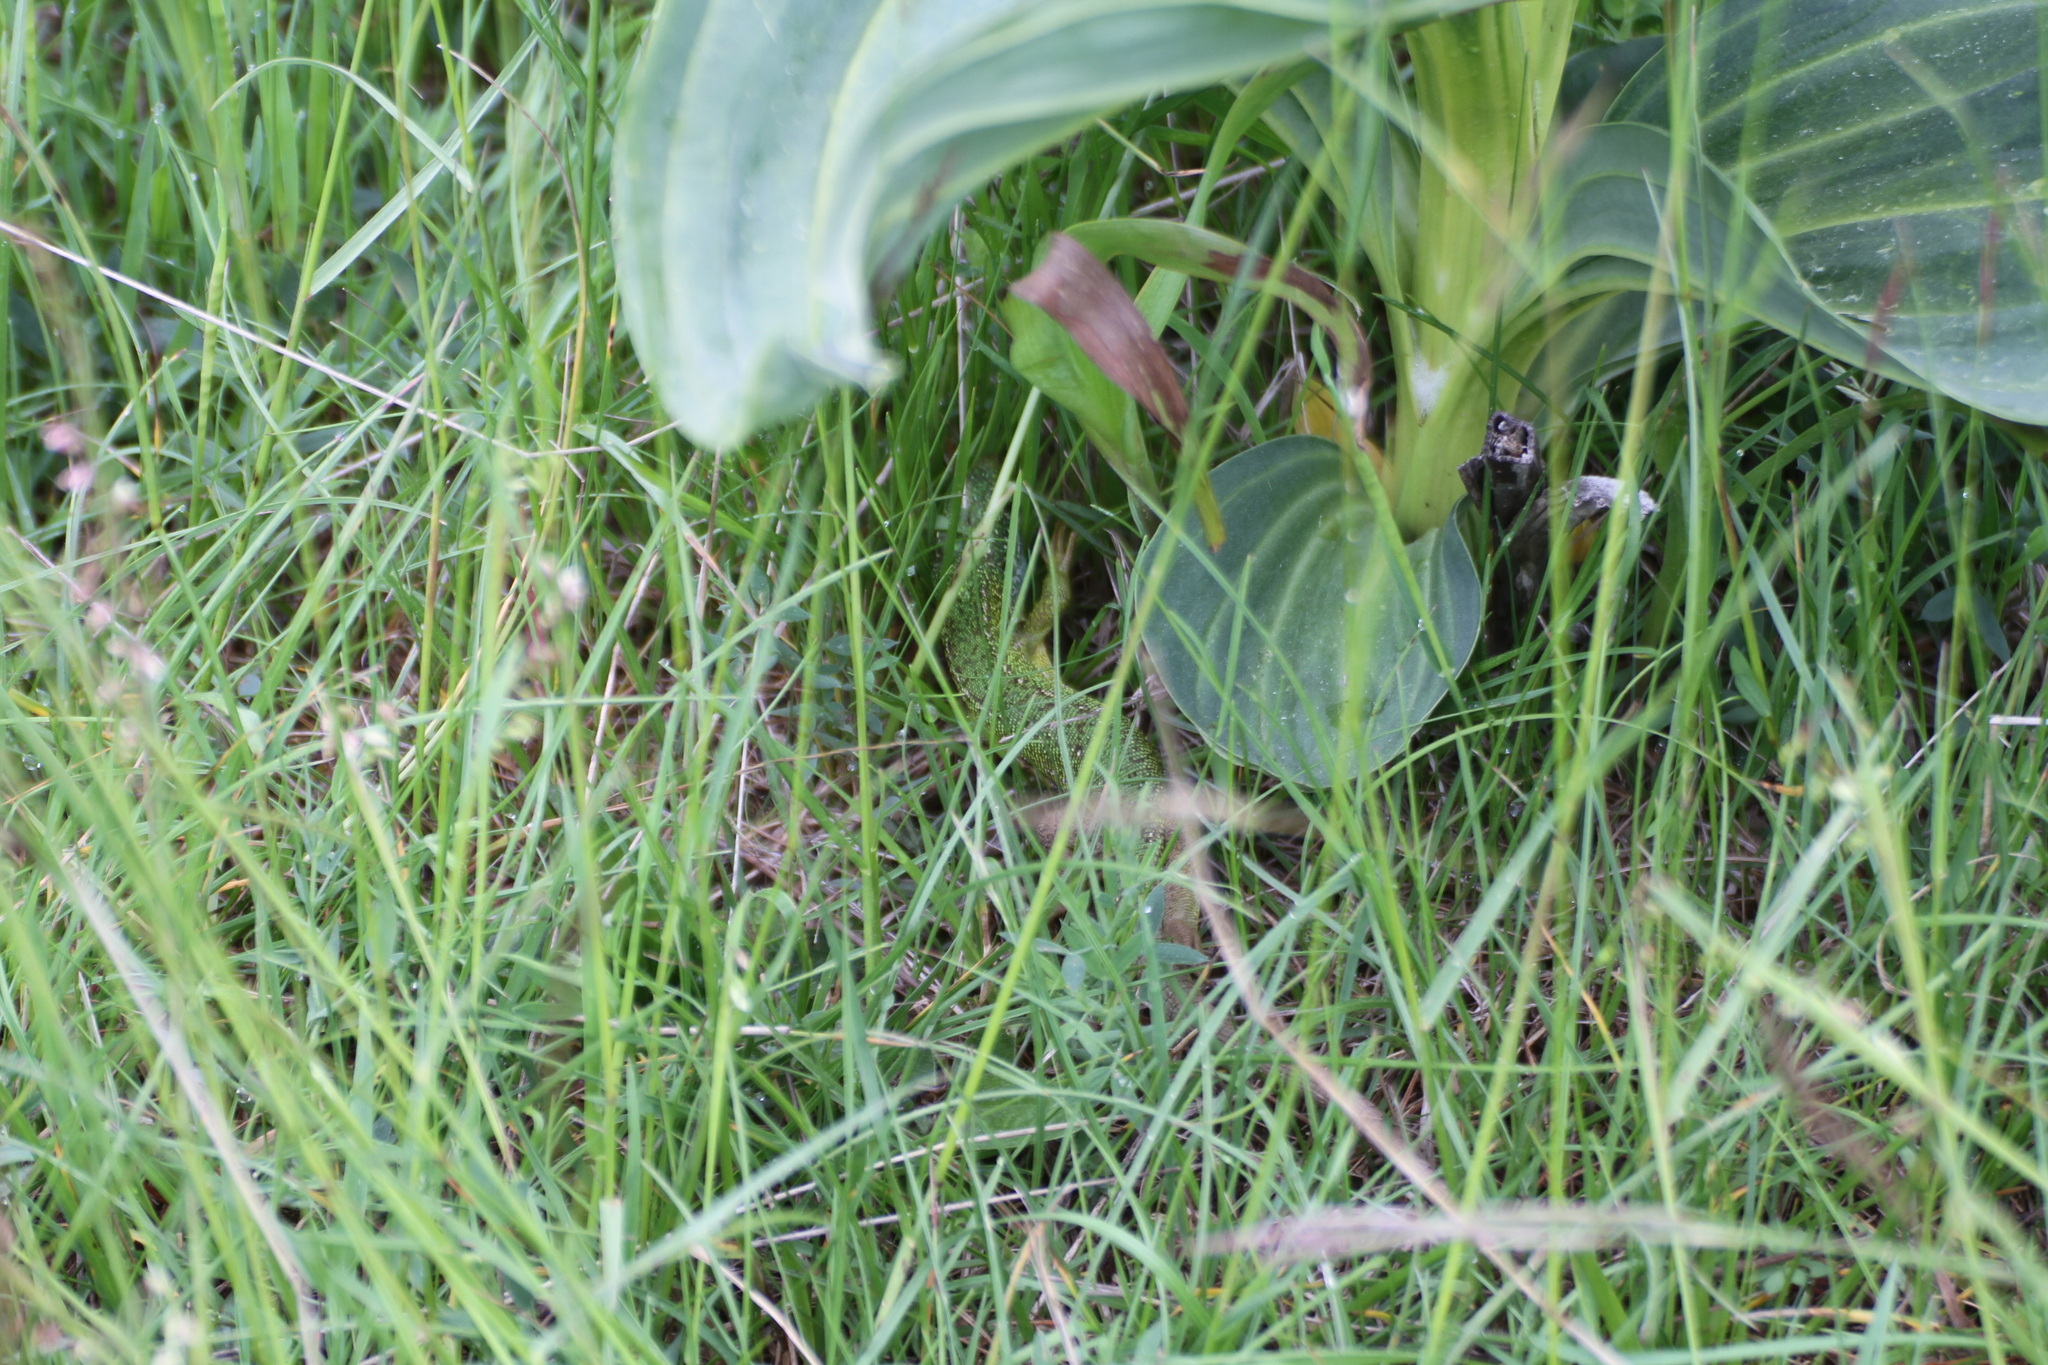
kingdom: Animalia
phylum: Chordata
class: Squamata
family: Lacertidae
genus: Lacerta
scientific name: Lacerta bilineata
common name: Western green lizard
